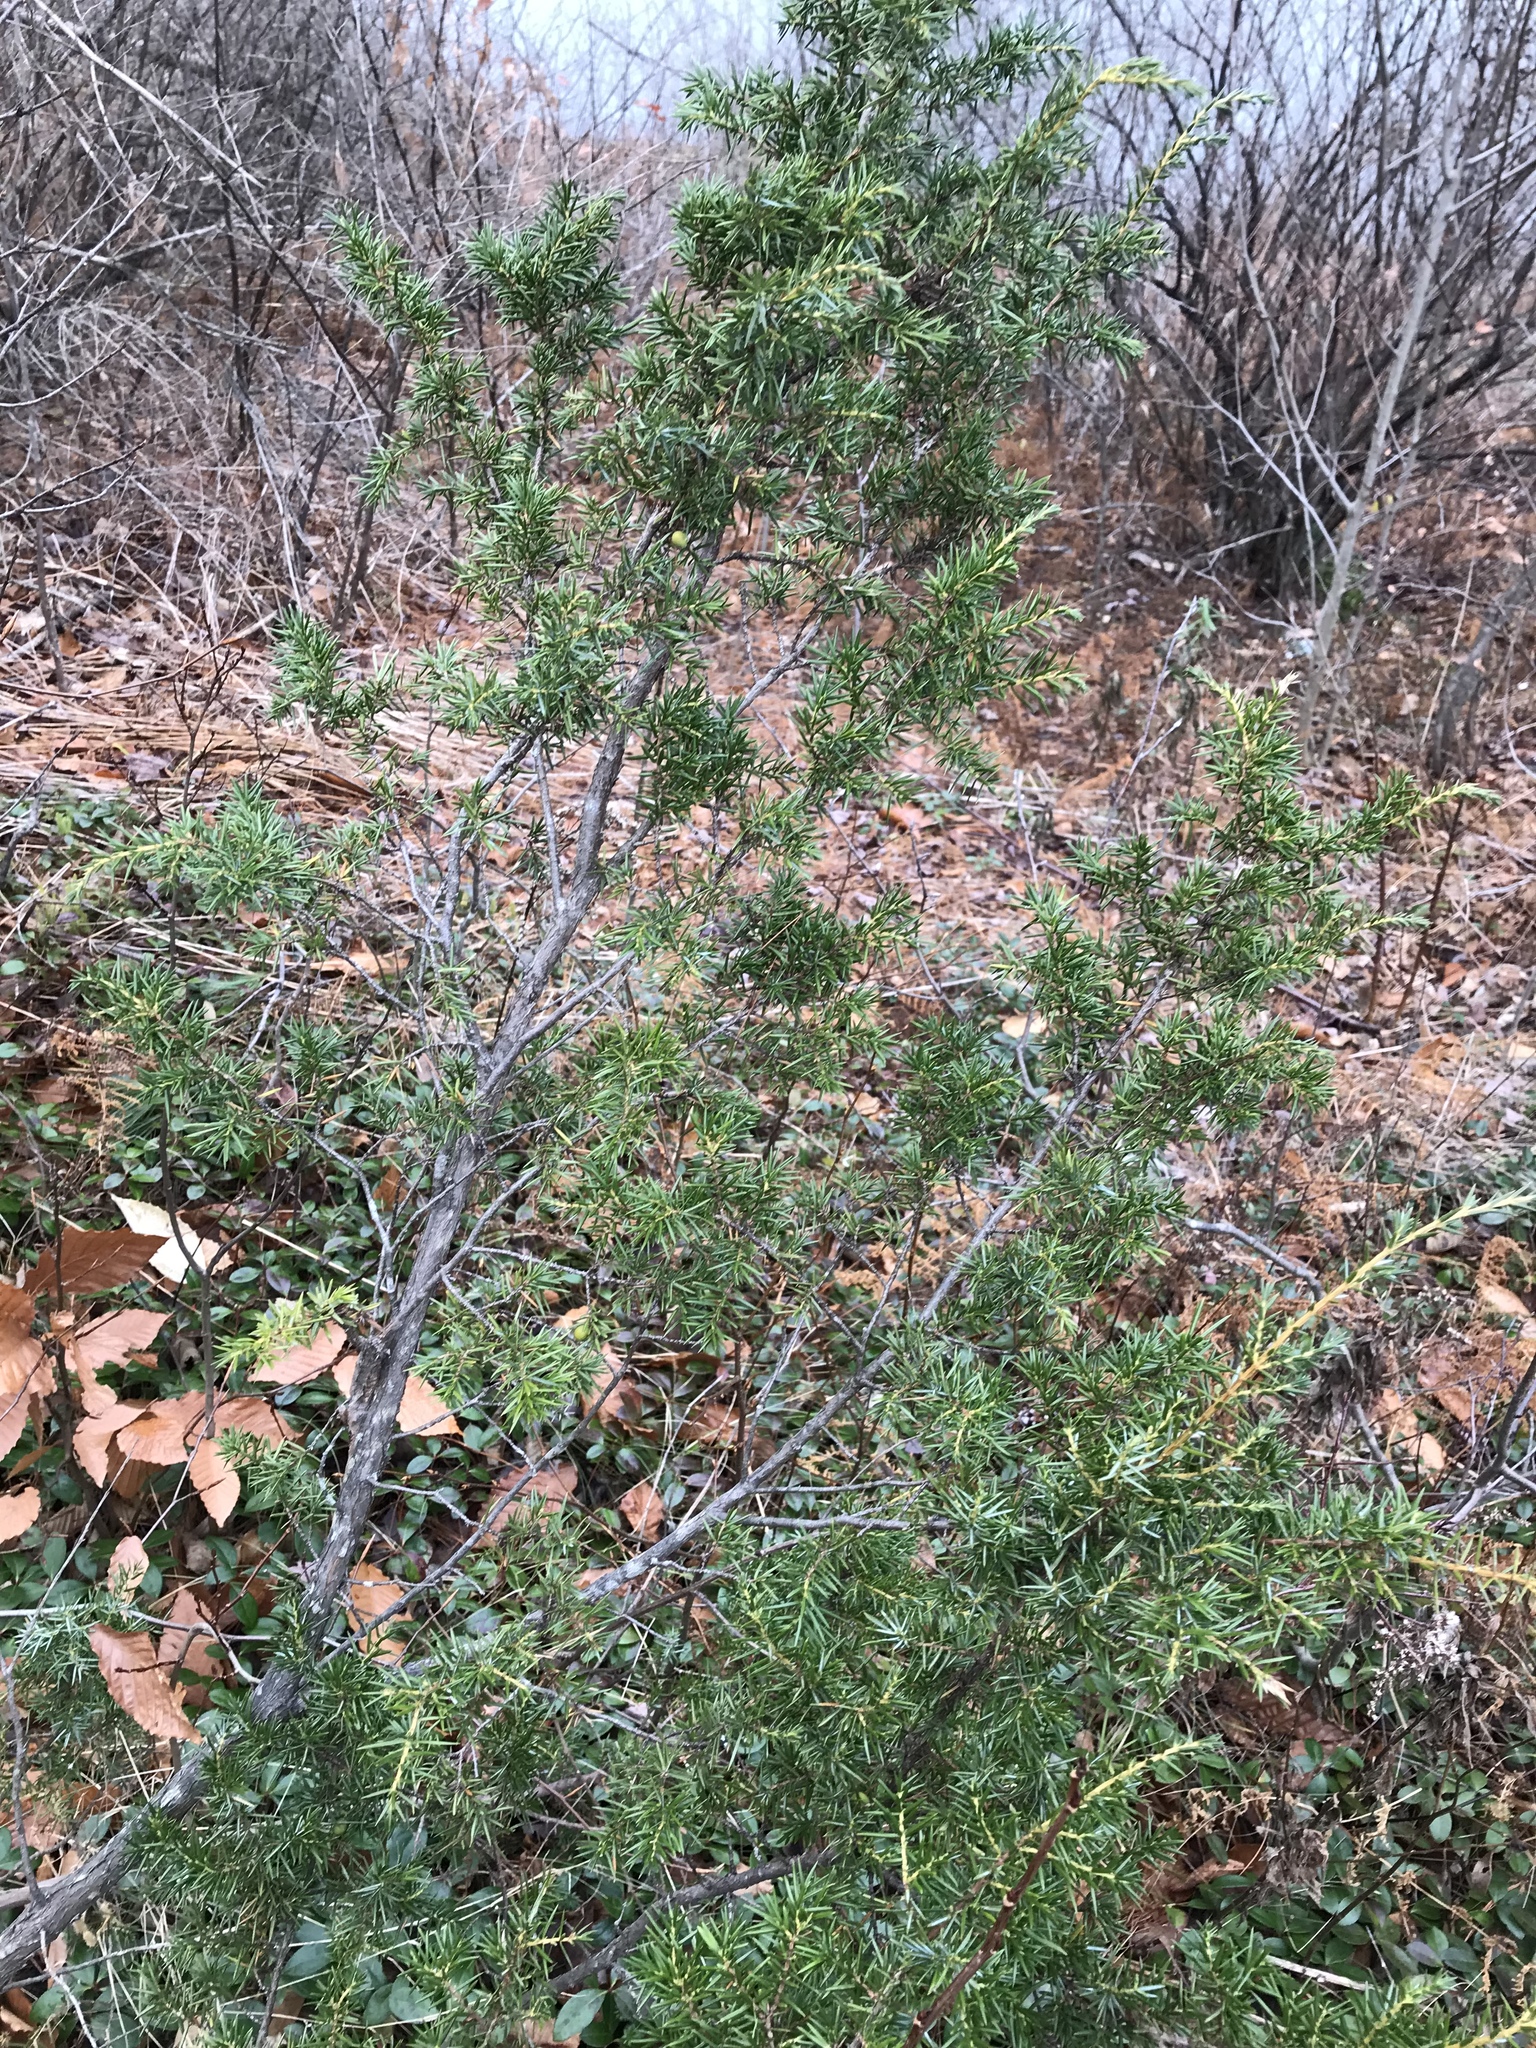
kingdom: Plantae
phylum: Tracheophyta
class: Pinopsida
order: Pinales
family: Cupressaceae
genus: Juniperus
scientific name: Juniperus communis
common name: Common juniper
